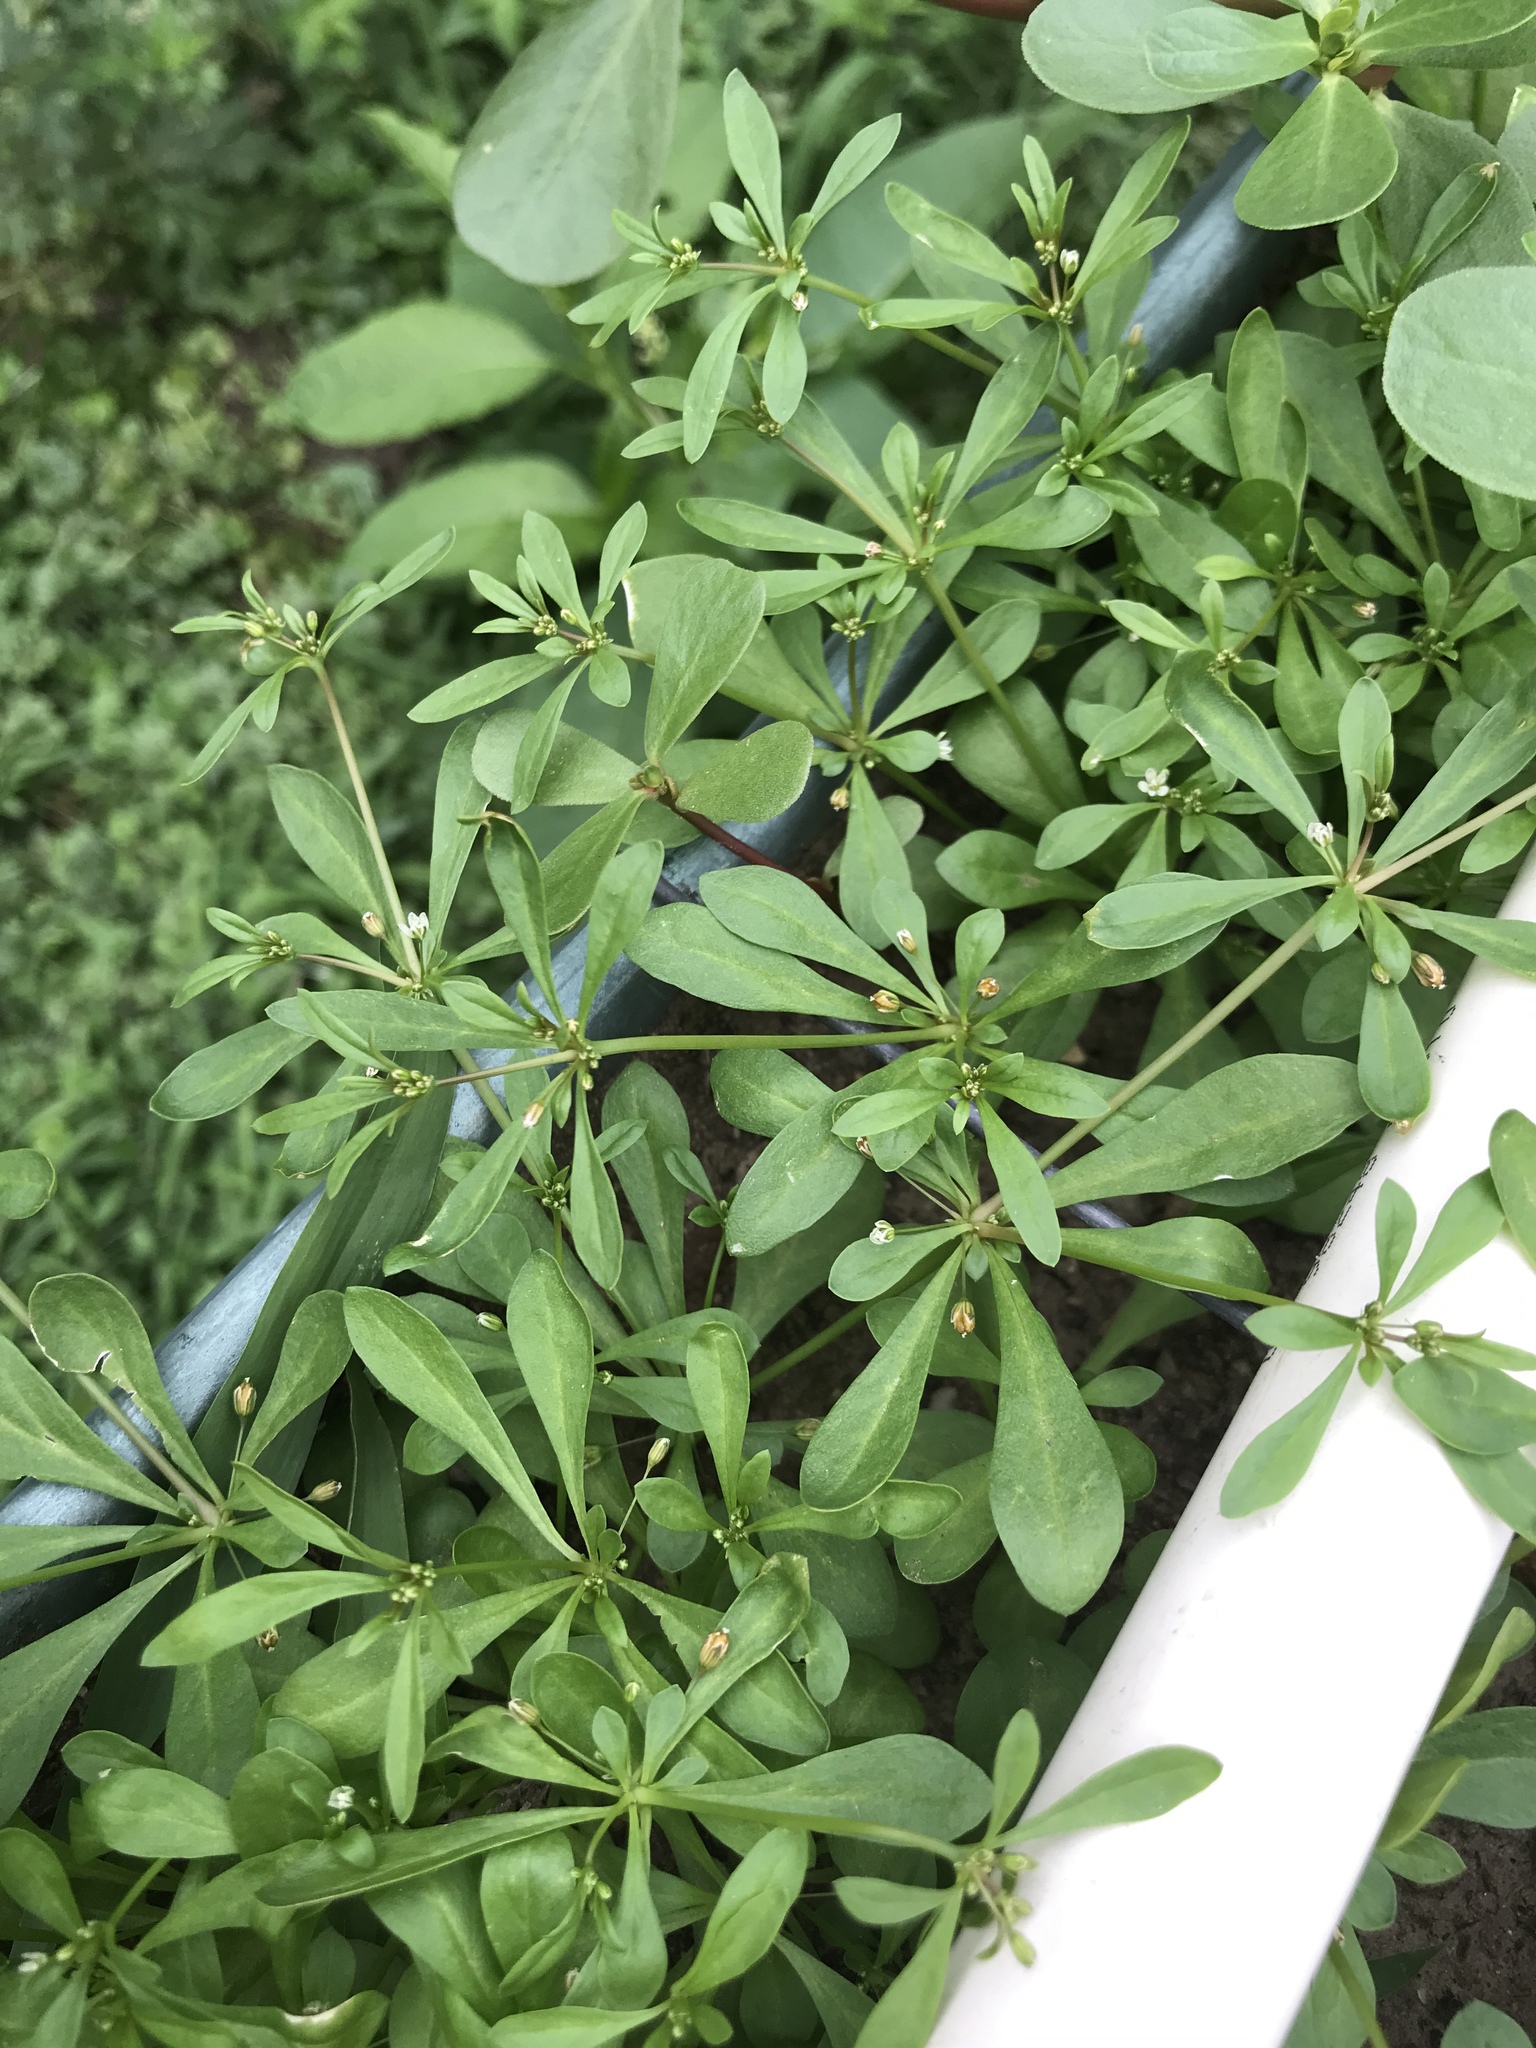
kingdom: Plantae
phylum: Tracheophyta
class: Magnoliopsida
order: Caryophyllales
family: Molluginaceae
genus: Mollugo
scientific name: Mollugo verticillata
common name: Green carpetweed
